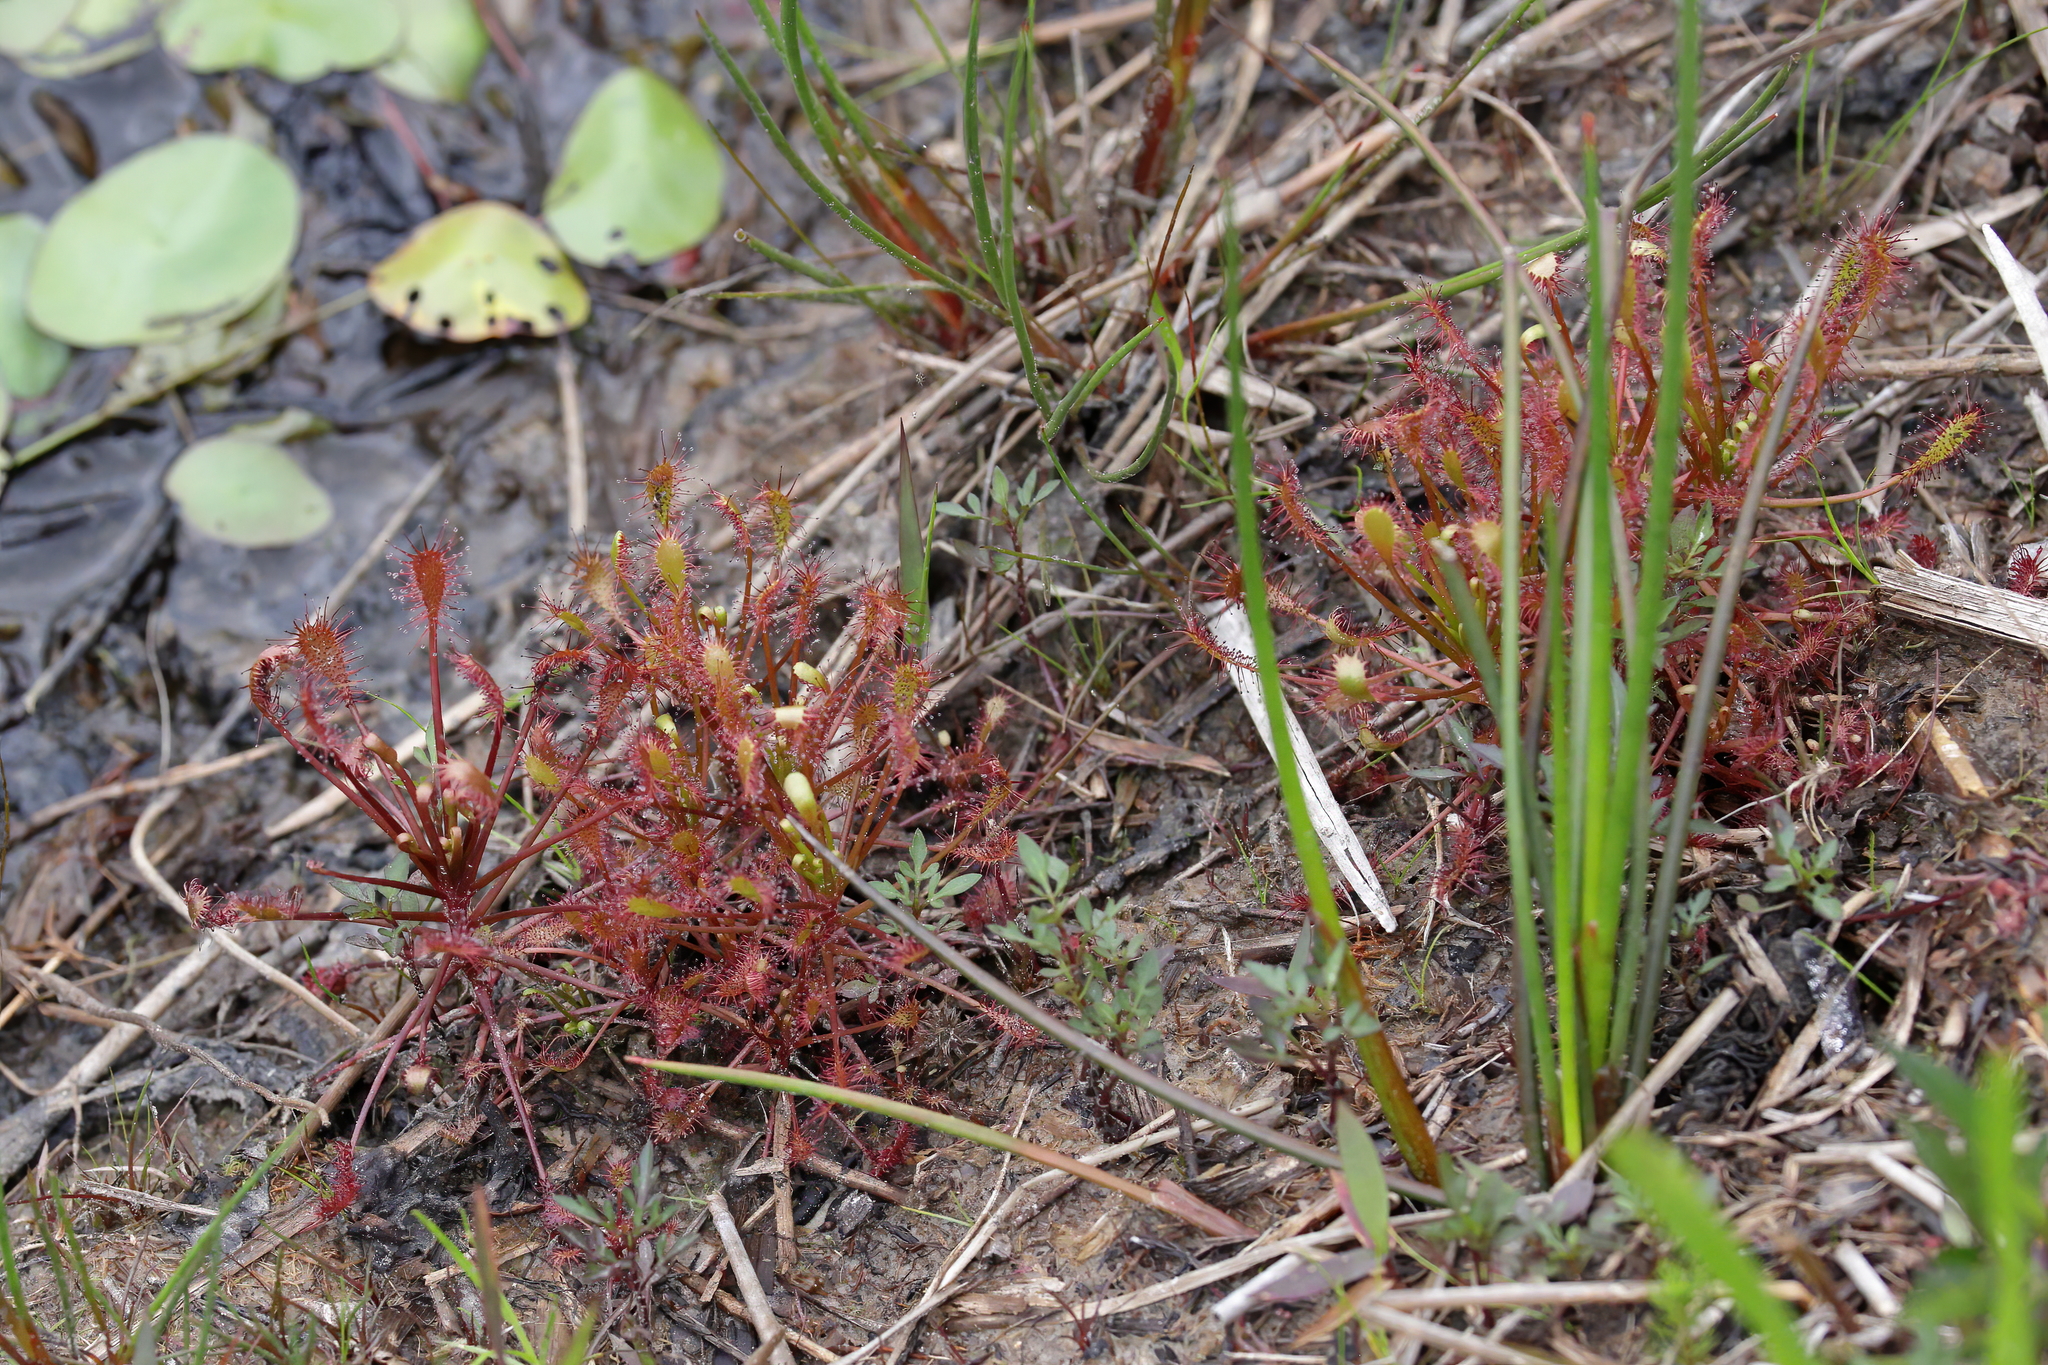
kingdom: Plantae
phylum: Tracheophyta
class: Magnoliopsida
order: Caryophyllales
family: Droseraceae
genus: Drosera
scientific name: Drosera intermedia
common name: Oblong-leaved sundew
